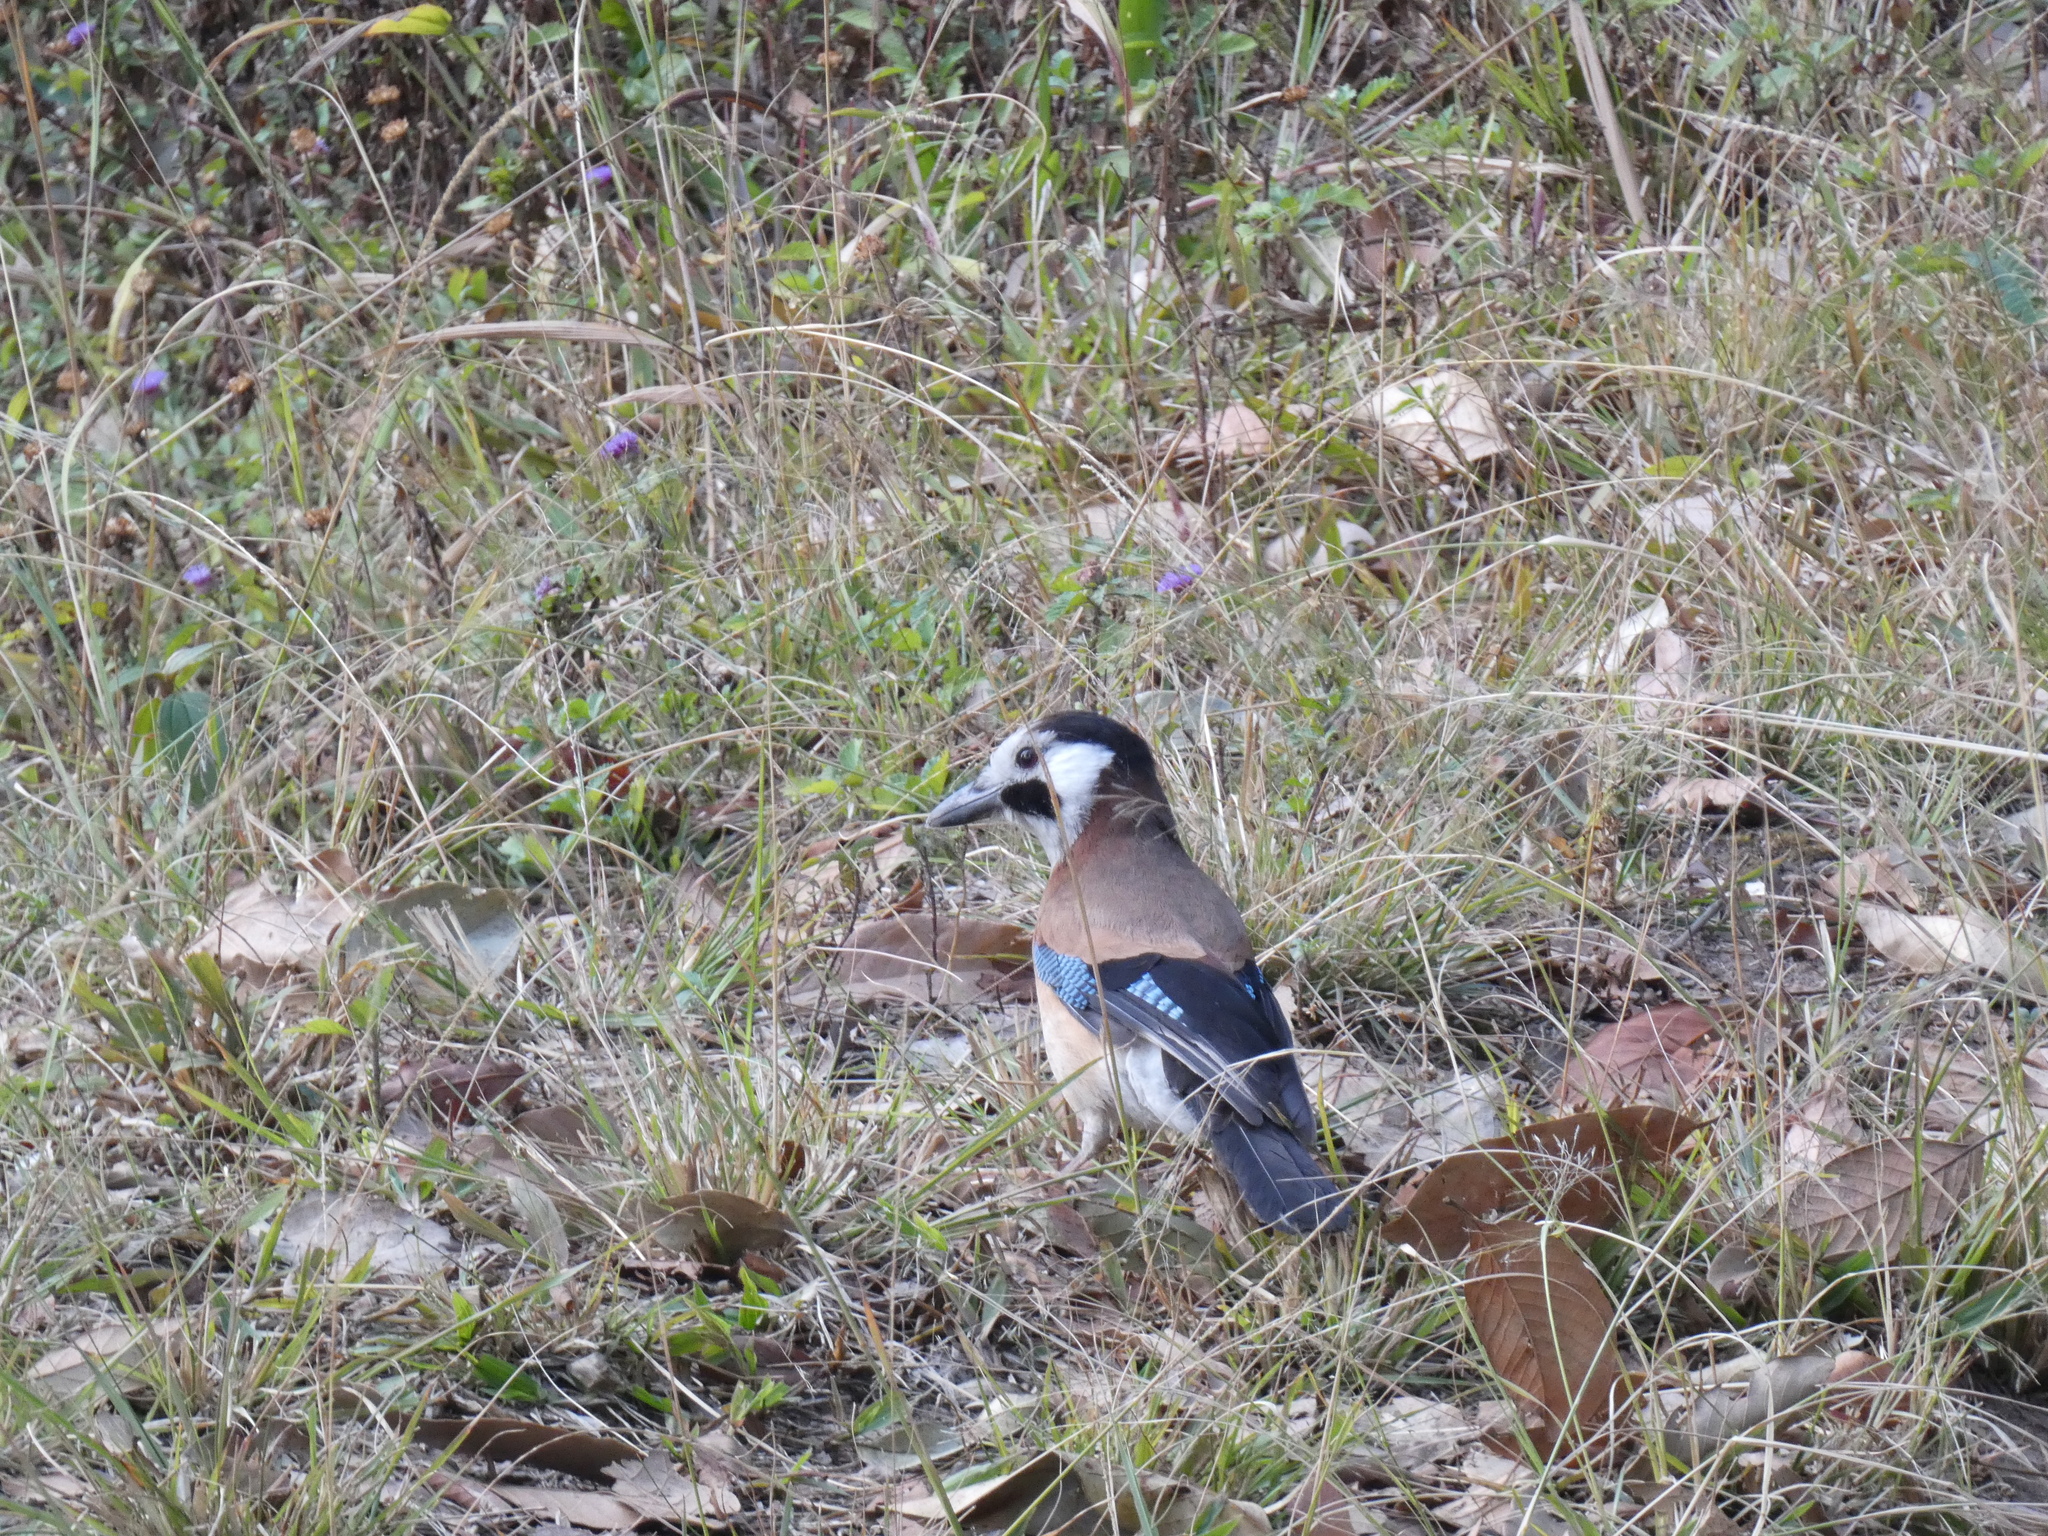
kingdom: Animalia
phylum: Chordata
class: Aves
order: Passeriformes
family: Corvidae
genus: Garrulus
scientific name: Garrulus glandarius
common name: Eurasian jay
